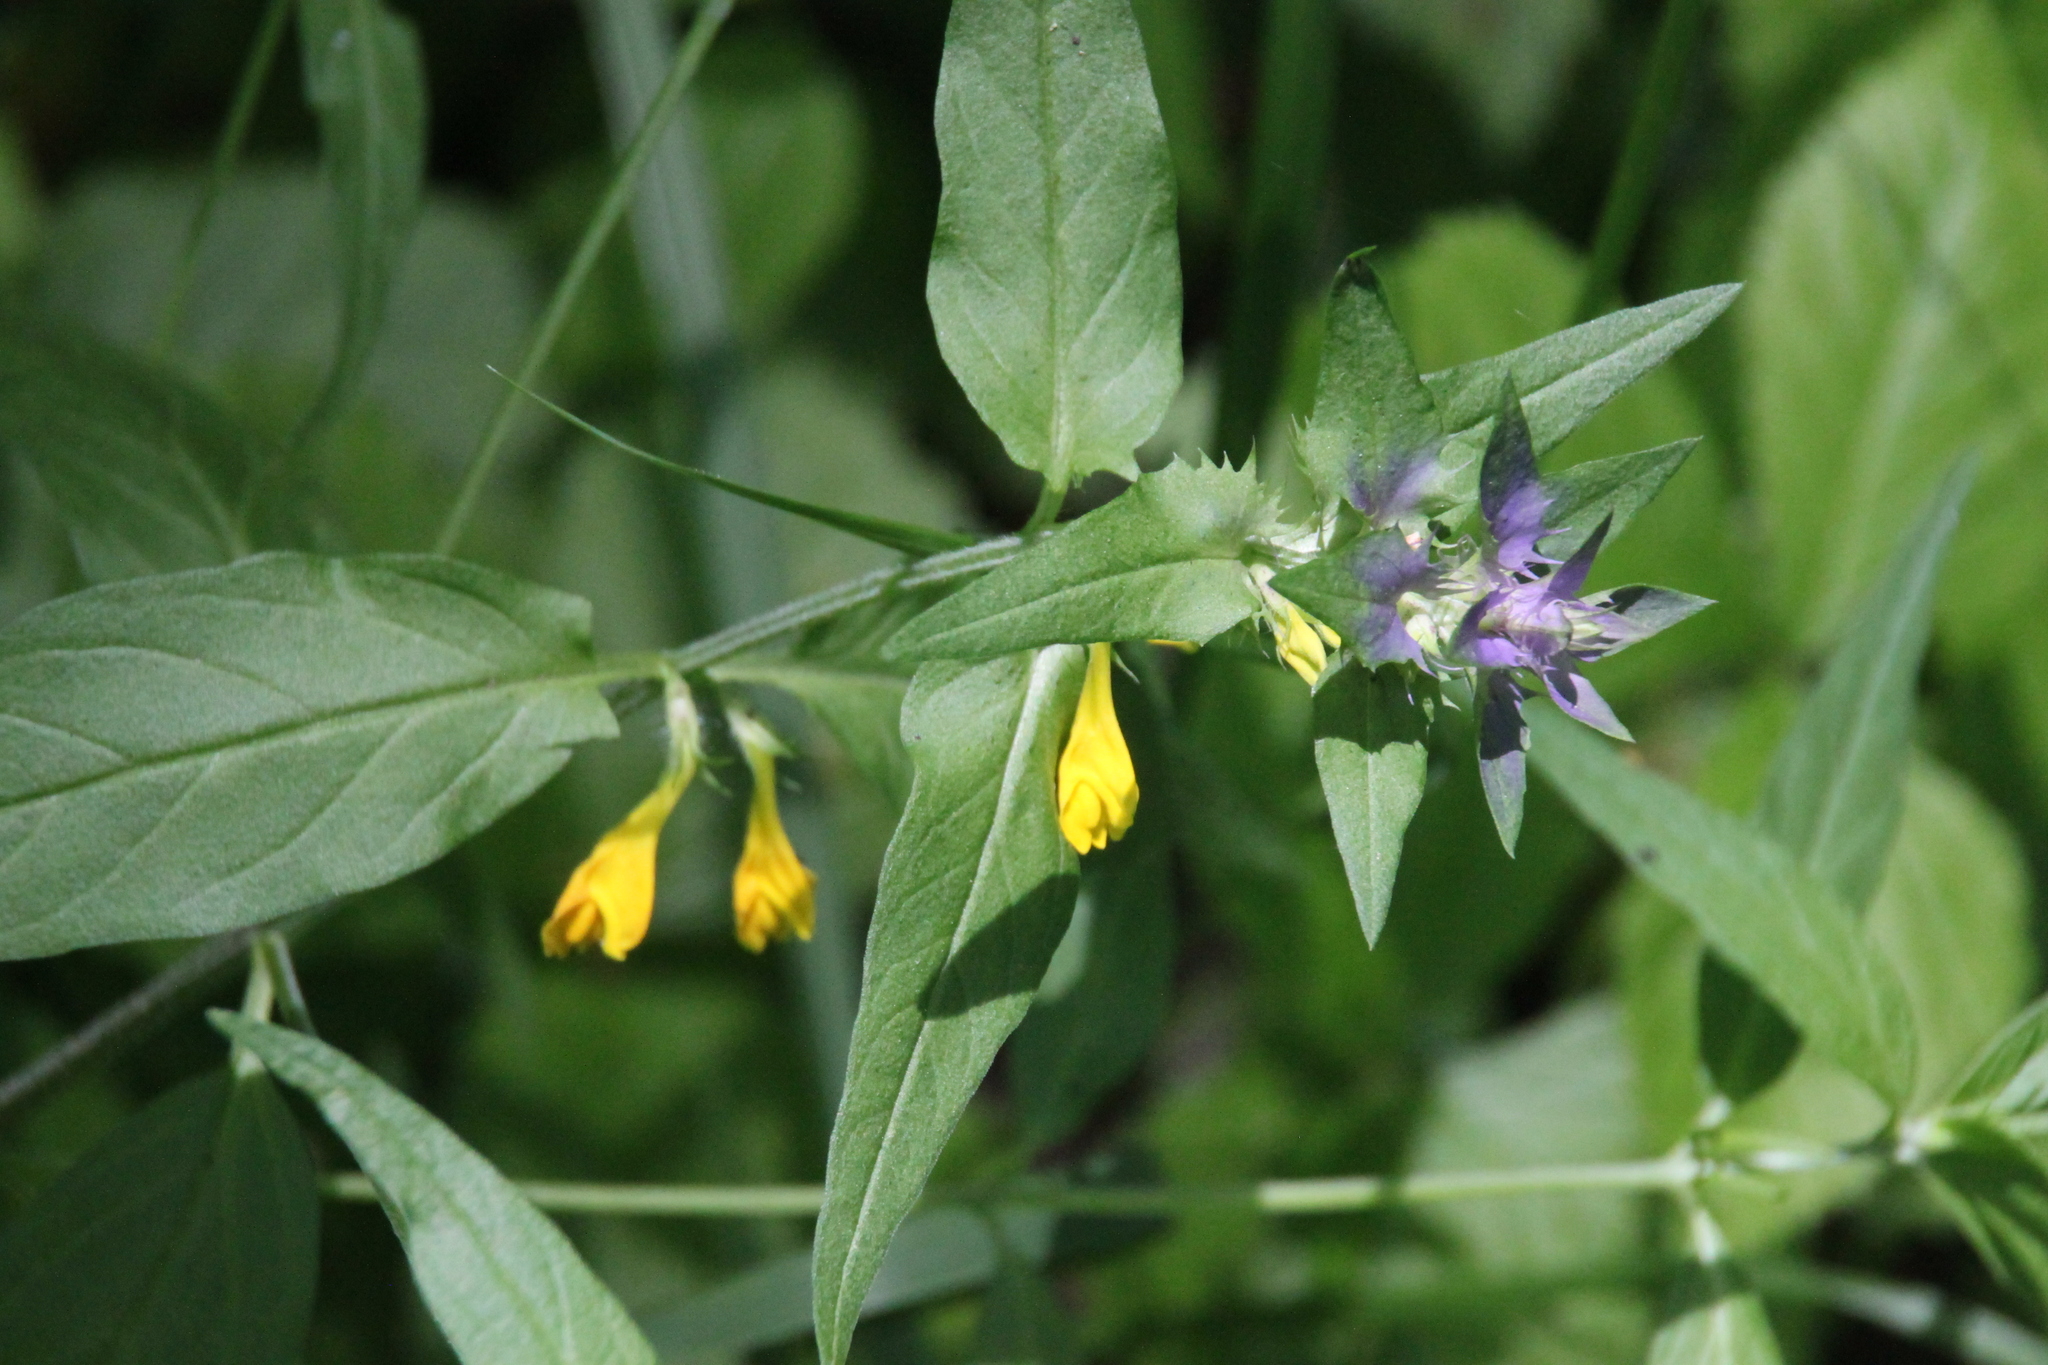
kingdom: Plantae
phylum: Tracheophyta
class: Magnoliopsida
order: Lamiales
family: Orobanchaceae
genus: Melampyrum
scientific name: Melampyrum nemorosum
